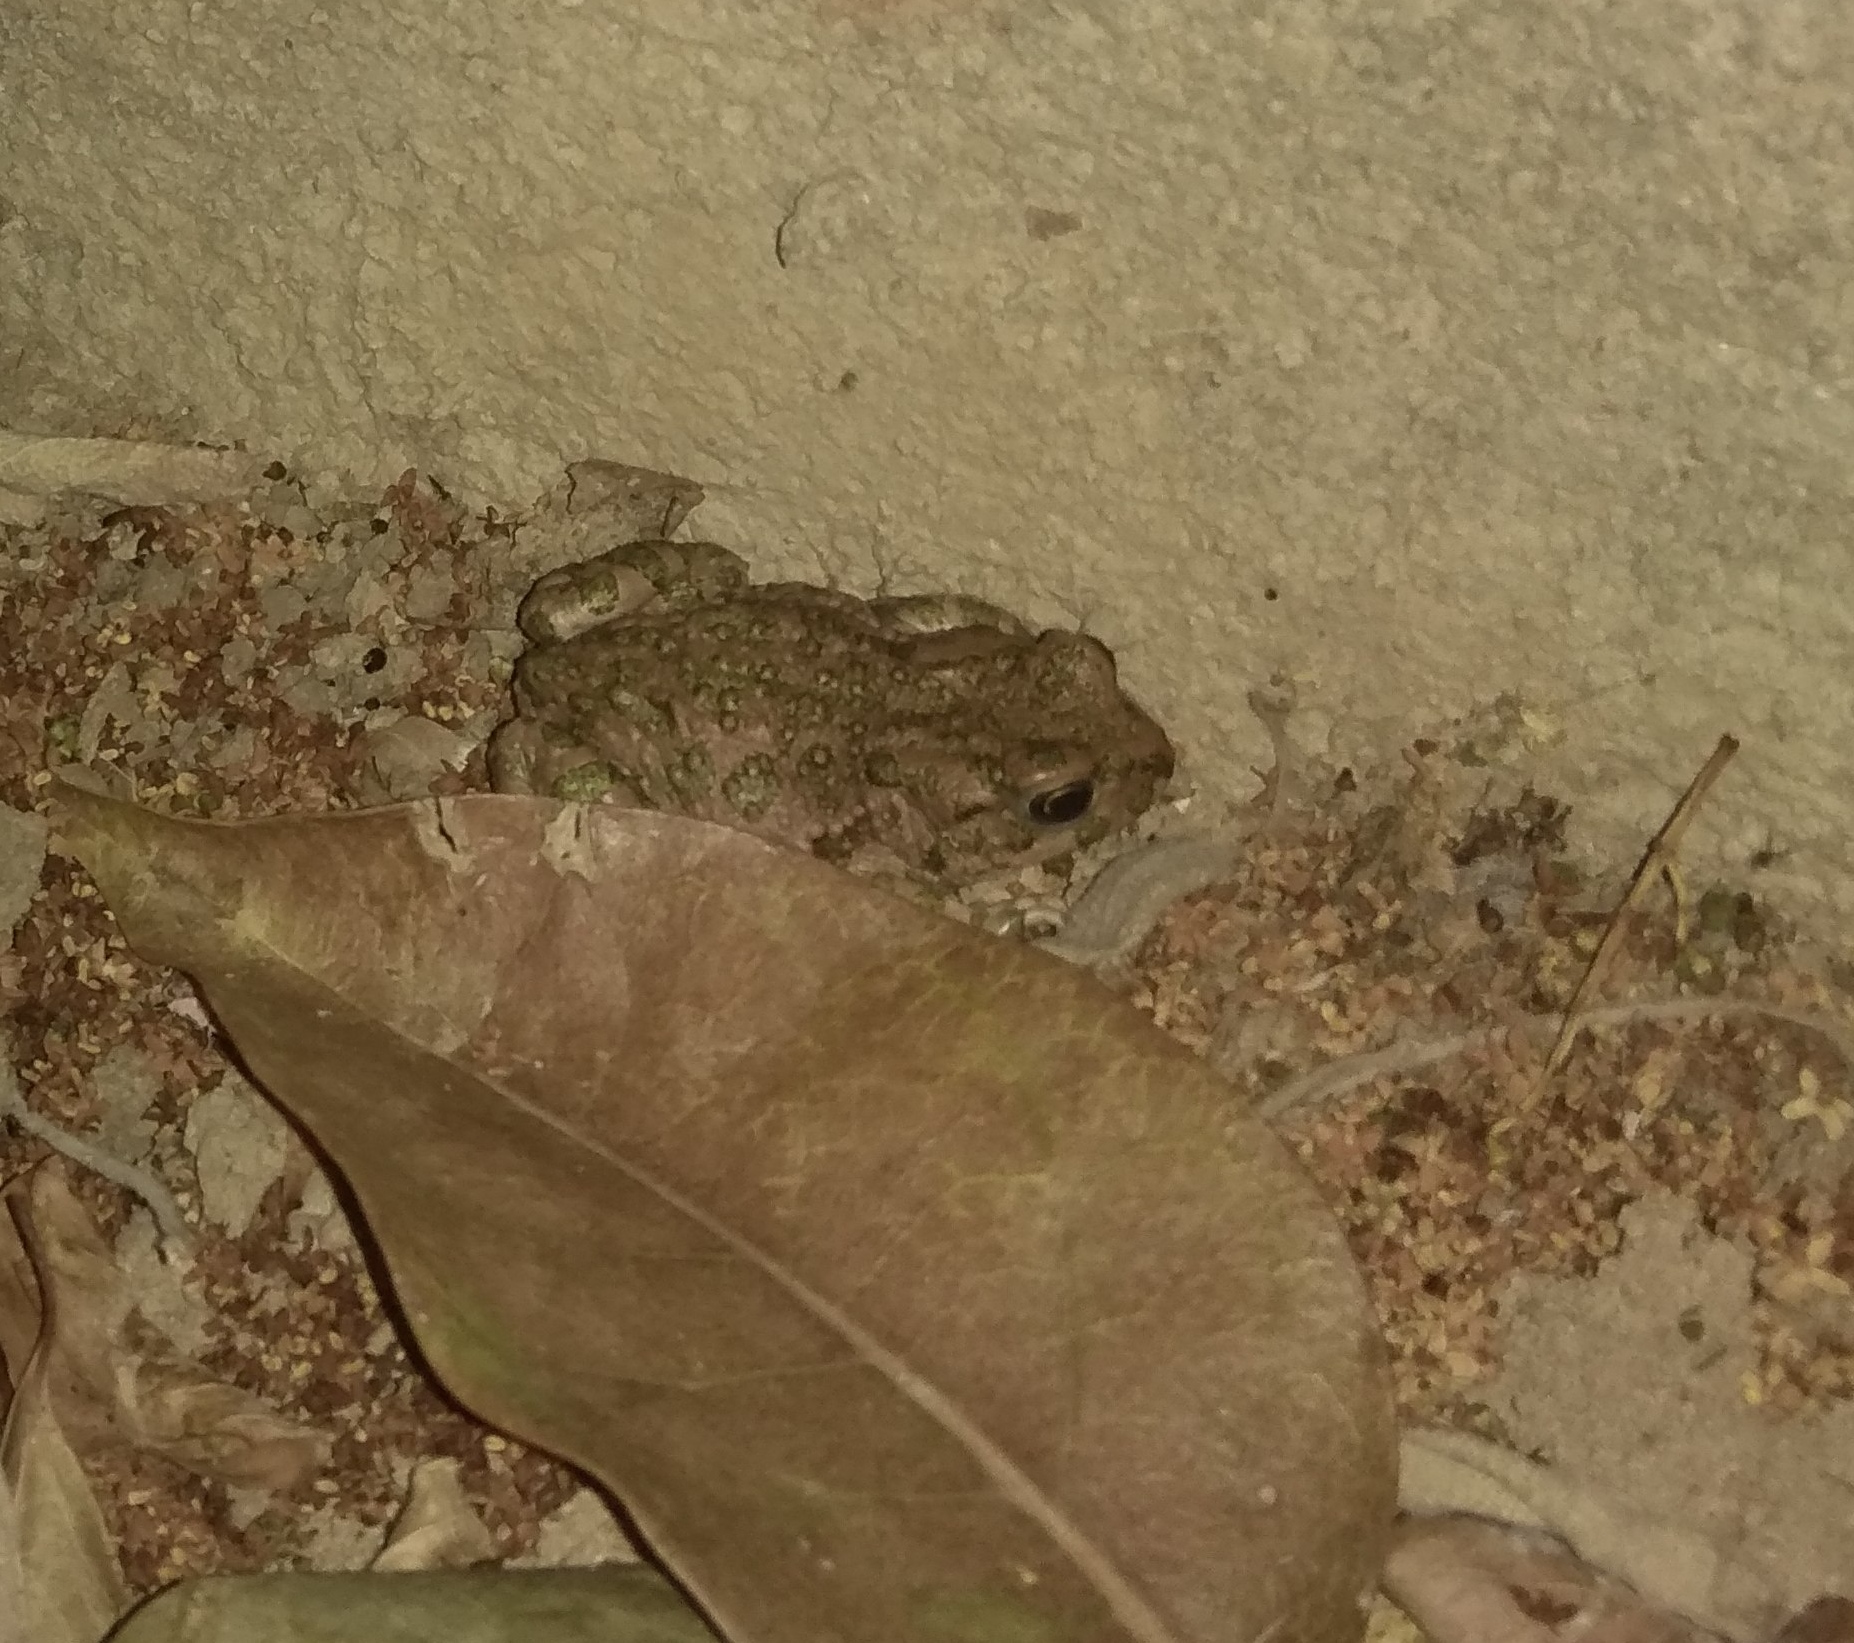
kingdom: Animalia
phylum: Chordata
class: Amphibia
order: Anura
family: Bufonidae
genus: Bufotes
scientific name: Bufotes viridis
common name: European green toad
